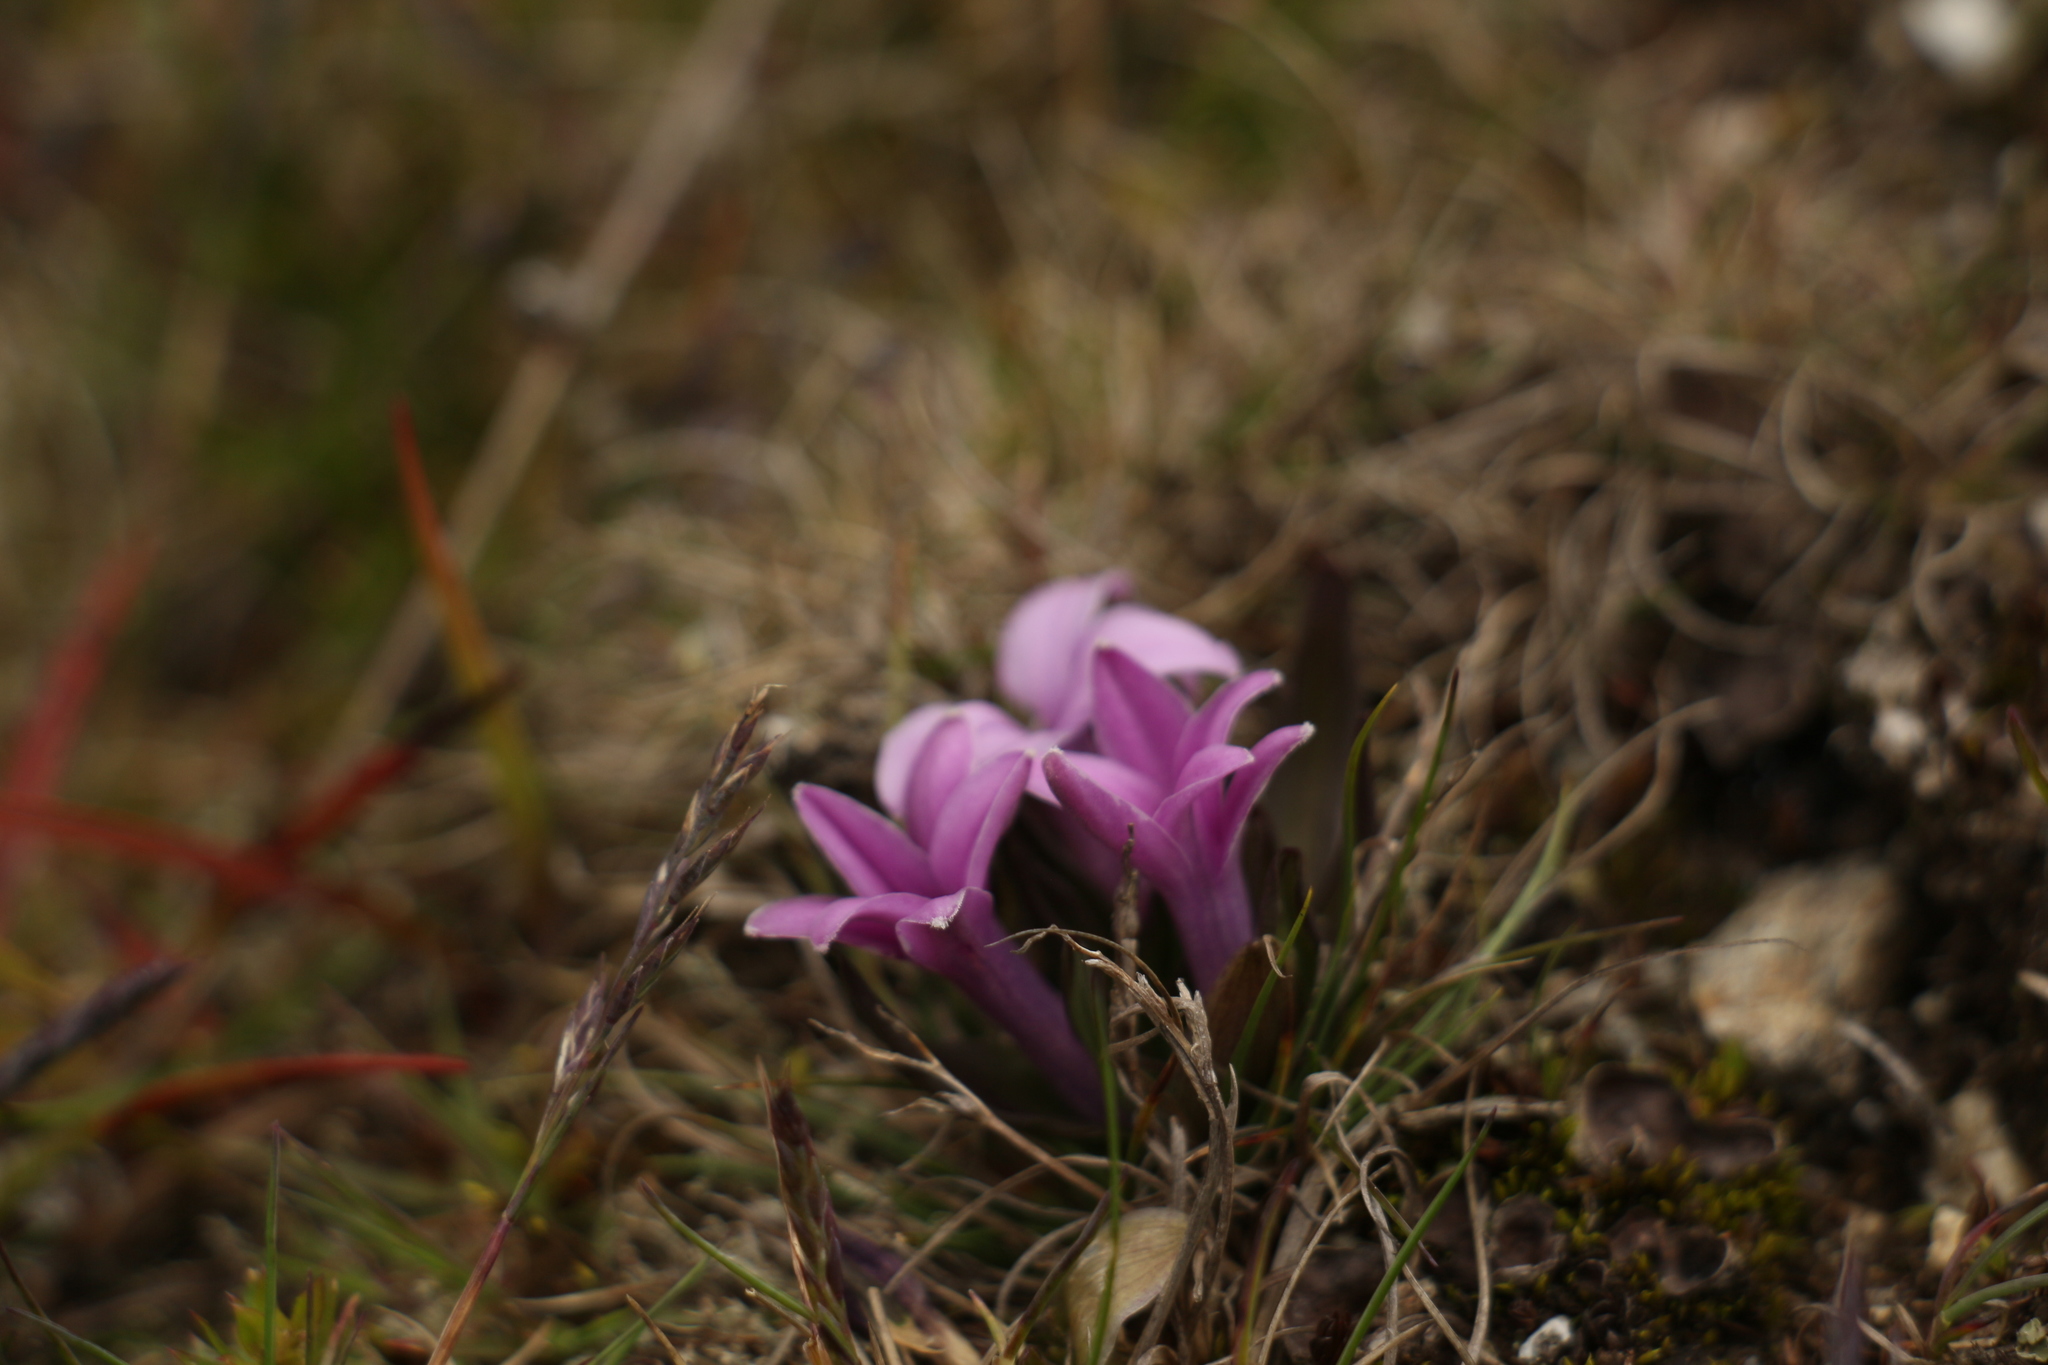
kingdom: Plantae
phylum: Tracheophyta
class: Liliopsida
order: Asparagales
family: Asparagaceae
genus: Polygonatum
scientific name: Polygonatum hookeri
